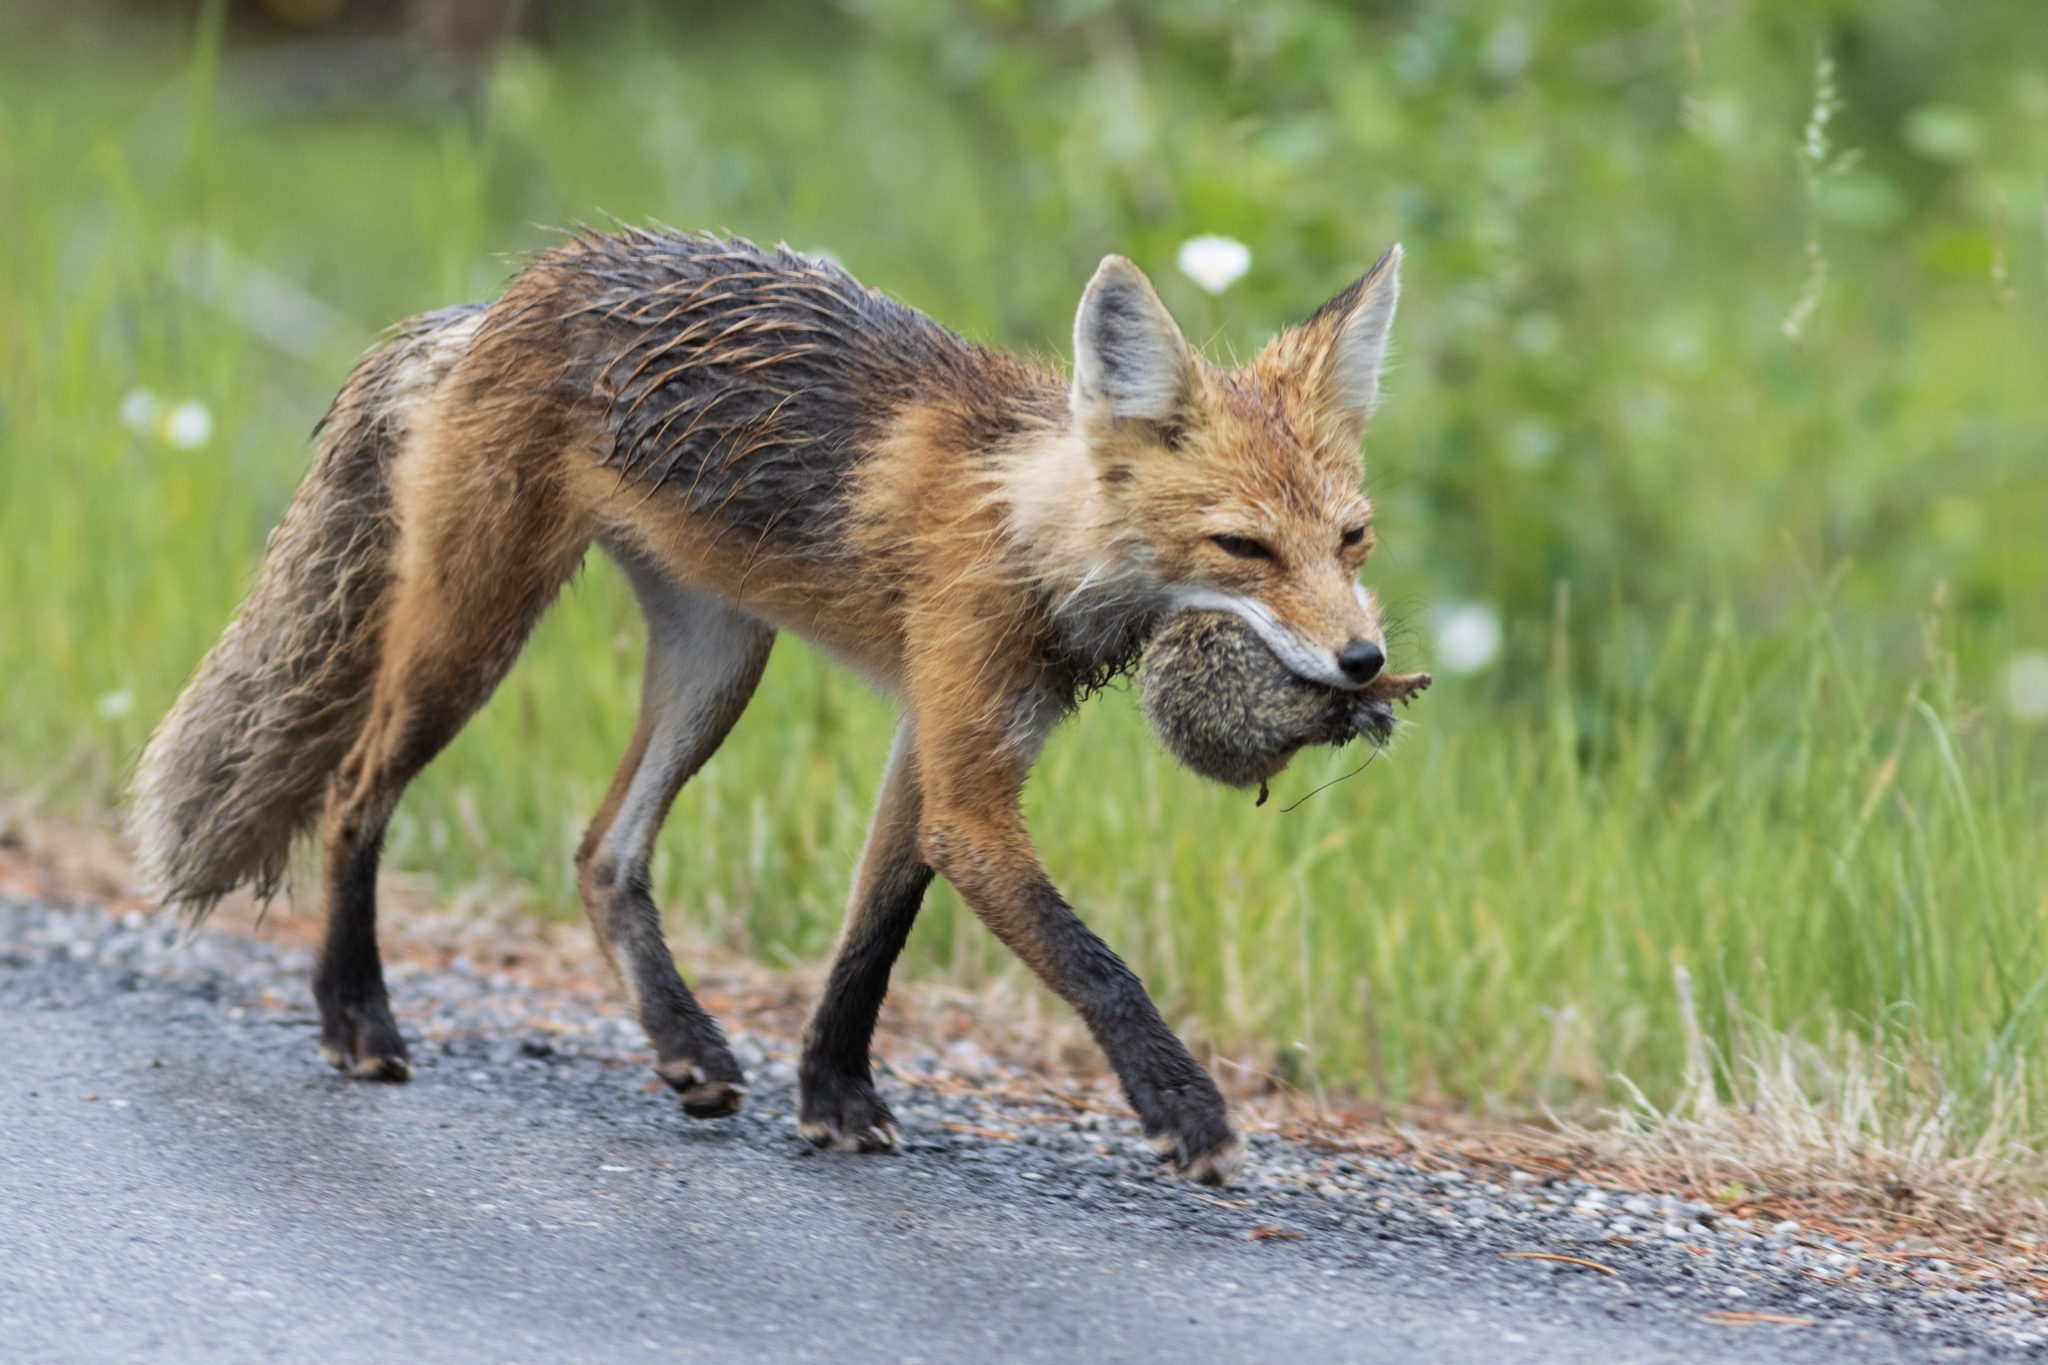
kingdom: Animalia
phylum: Chordata
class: Mammalia
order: Carnivora
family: Canidae
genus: Vulpes
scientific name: Vulpes vulpes
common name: Red fox
